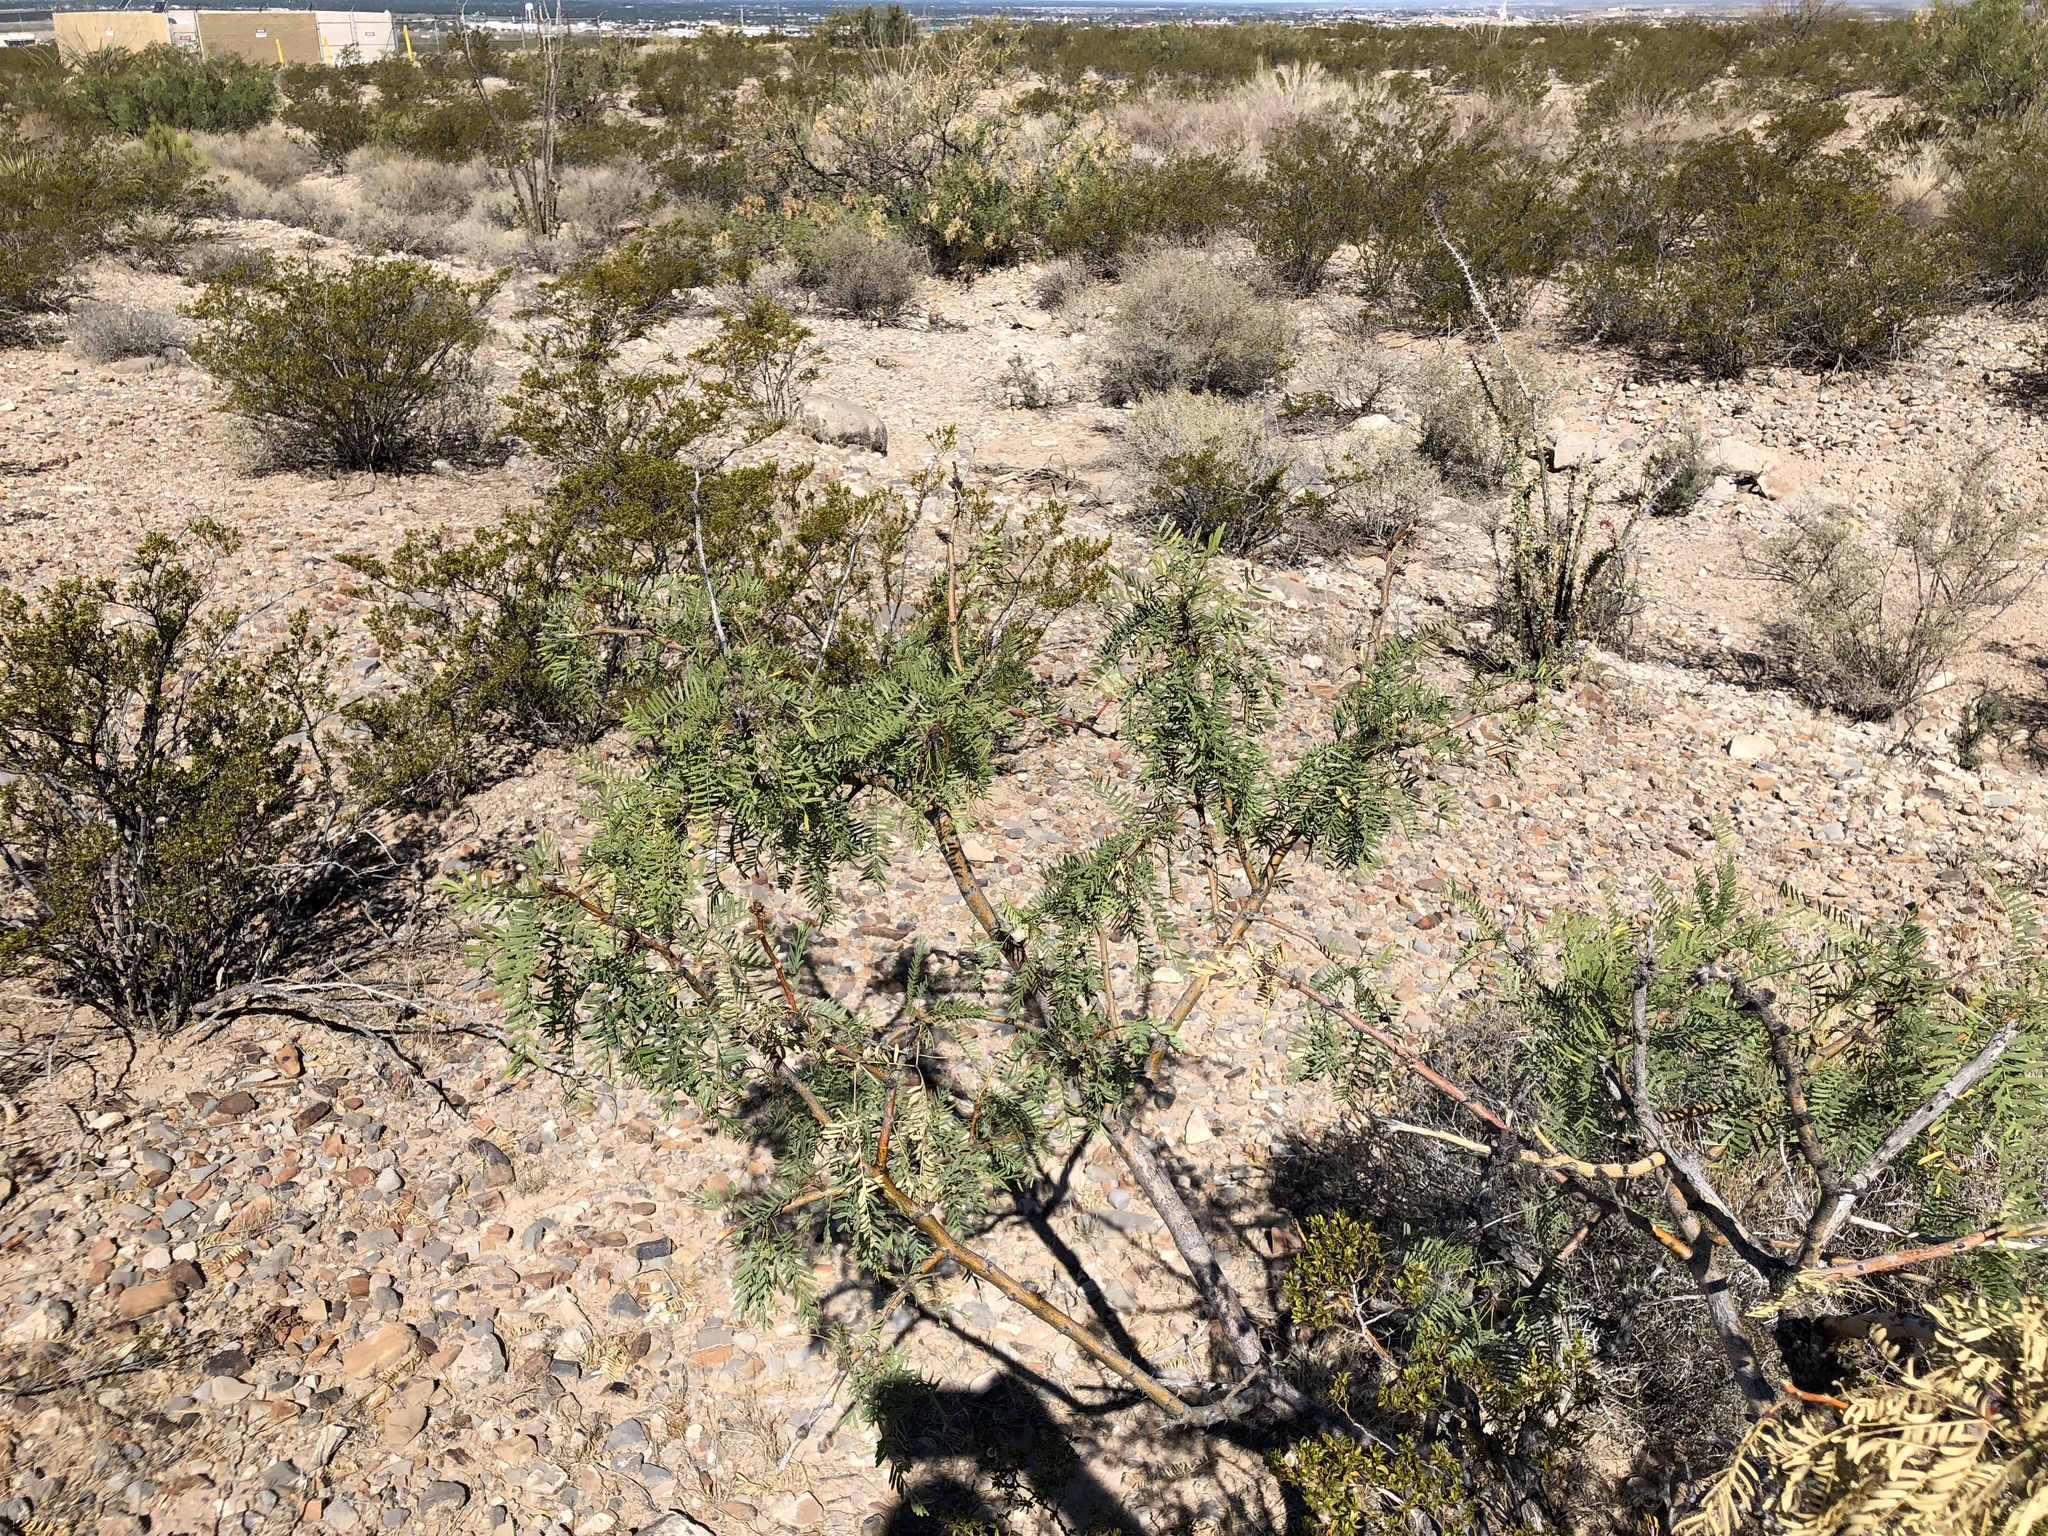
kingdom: Plantae
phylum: Tracheophyta
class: Magnoliopsida
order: Fabales
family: Fabaceae
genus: Prosopis
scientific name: Prosopis glandulosa
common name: Honey mesquite
